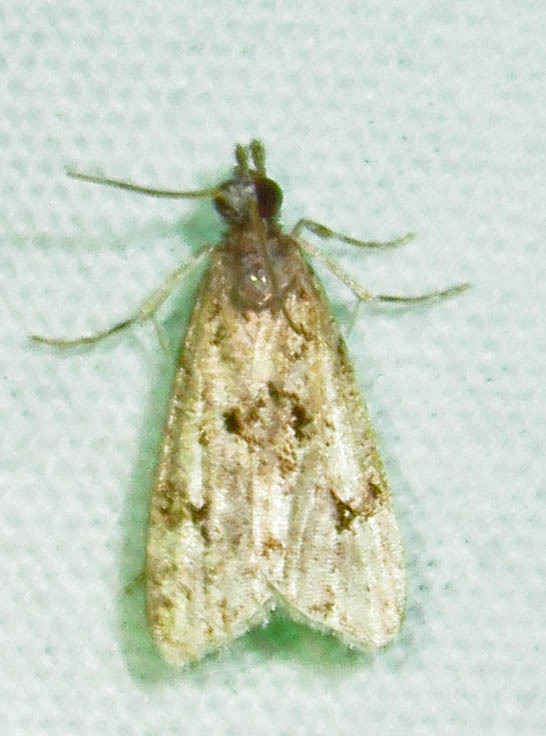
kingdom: Animalia
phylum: Arthropoda
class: Insecta
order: Lepidoptera
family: Crambidae
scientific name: Crambidae
